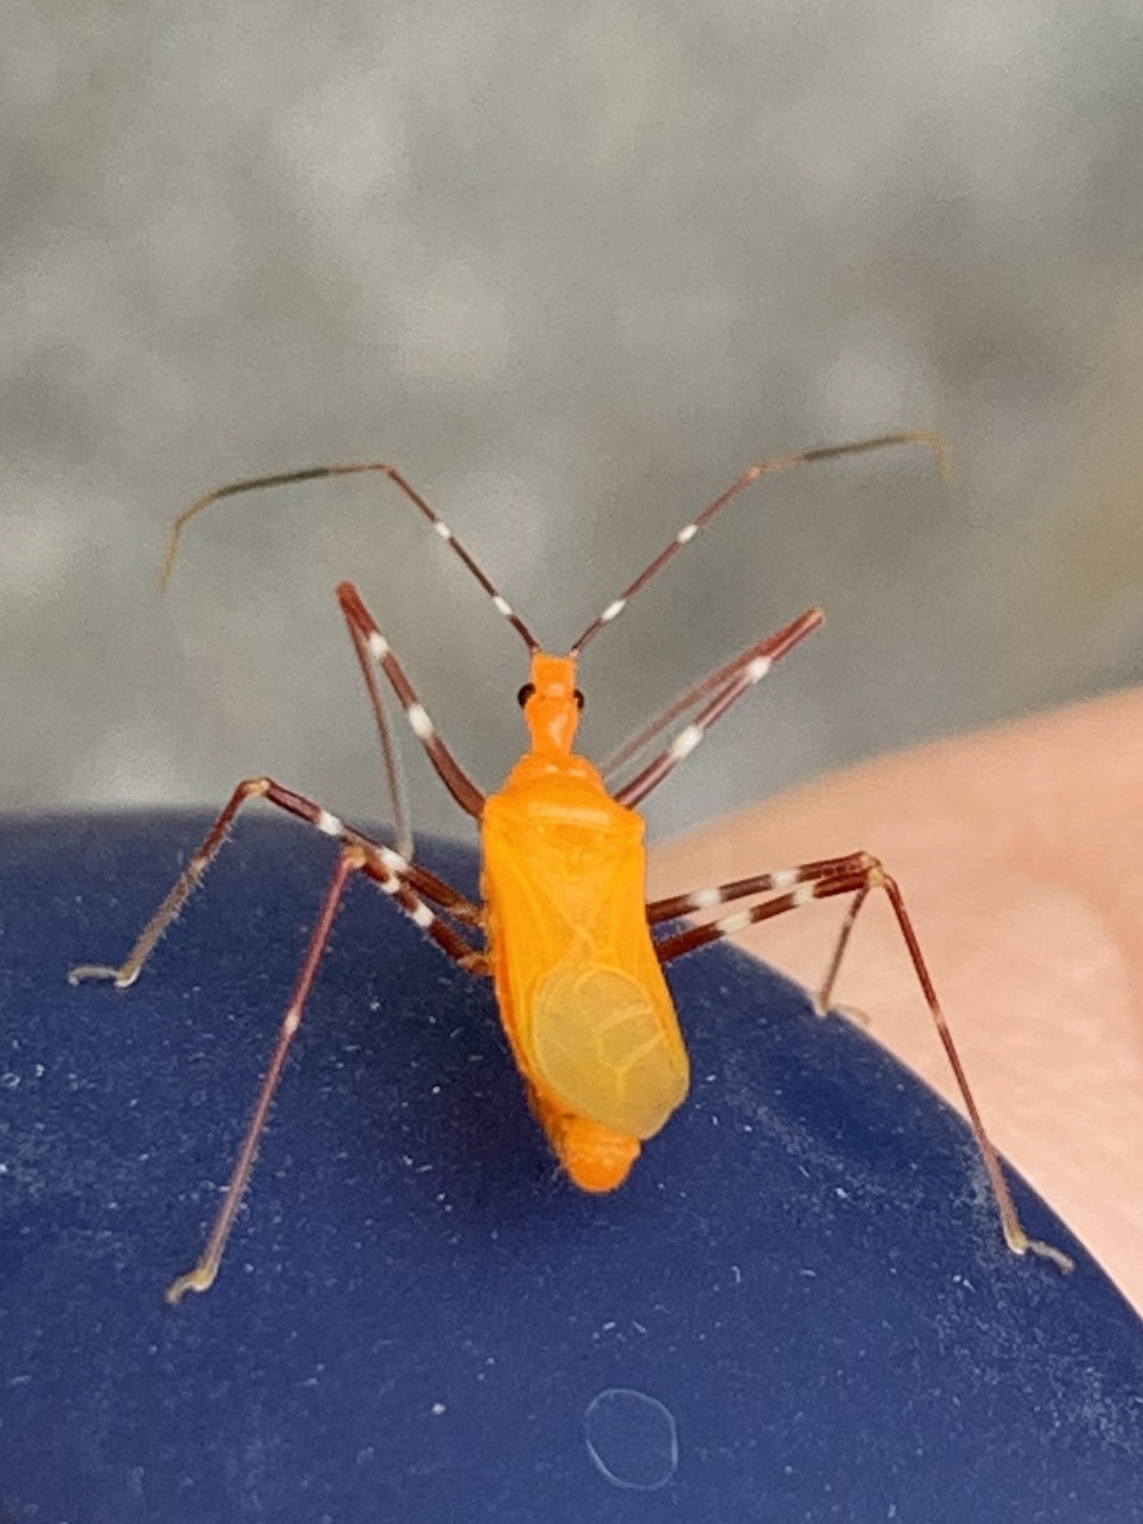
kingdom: Animalia
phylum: Arthropoda
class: Insecta
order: Hemiptera
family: Reduviidae
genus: Zelus
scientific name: Zelus longipes
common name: Milkweed assassin bug
